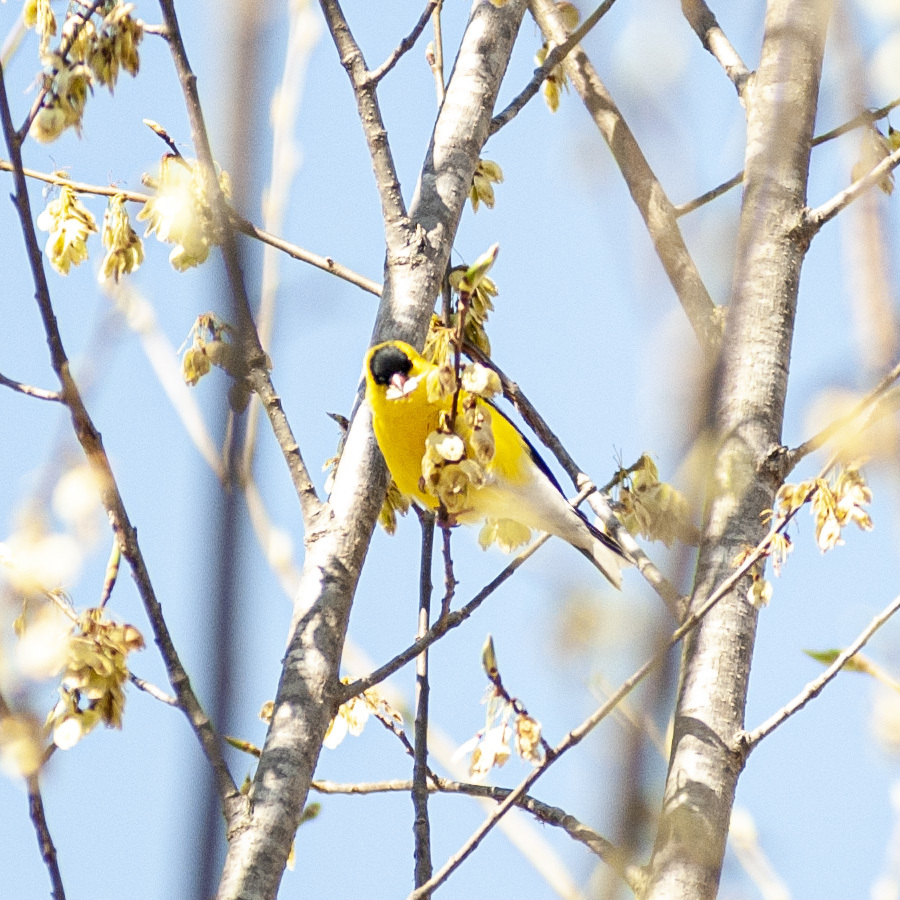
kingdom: Animalia
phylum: Chordata
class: Aves
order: Passeriformes
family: Fringillidae
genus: Spinus
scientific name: Spinus tristis
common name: American goldfinch
